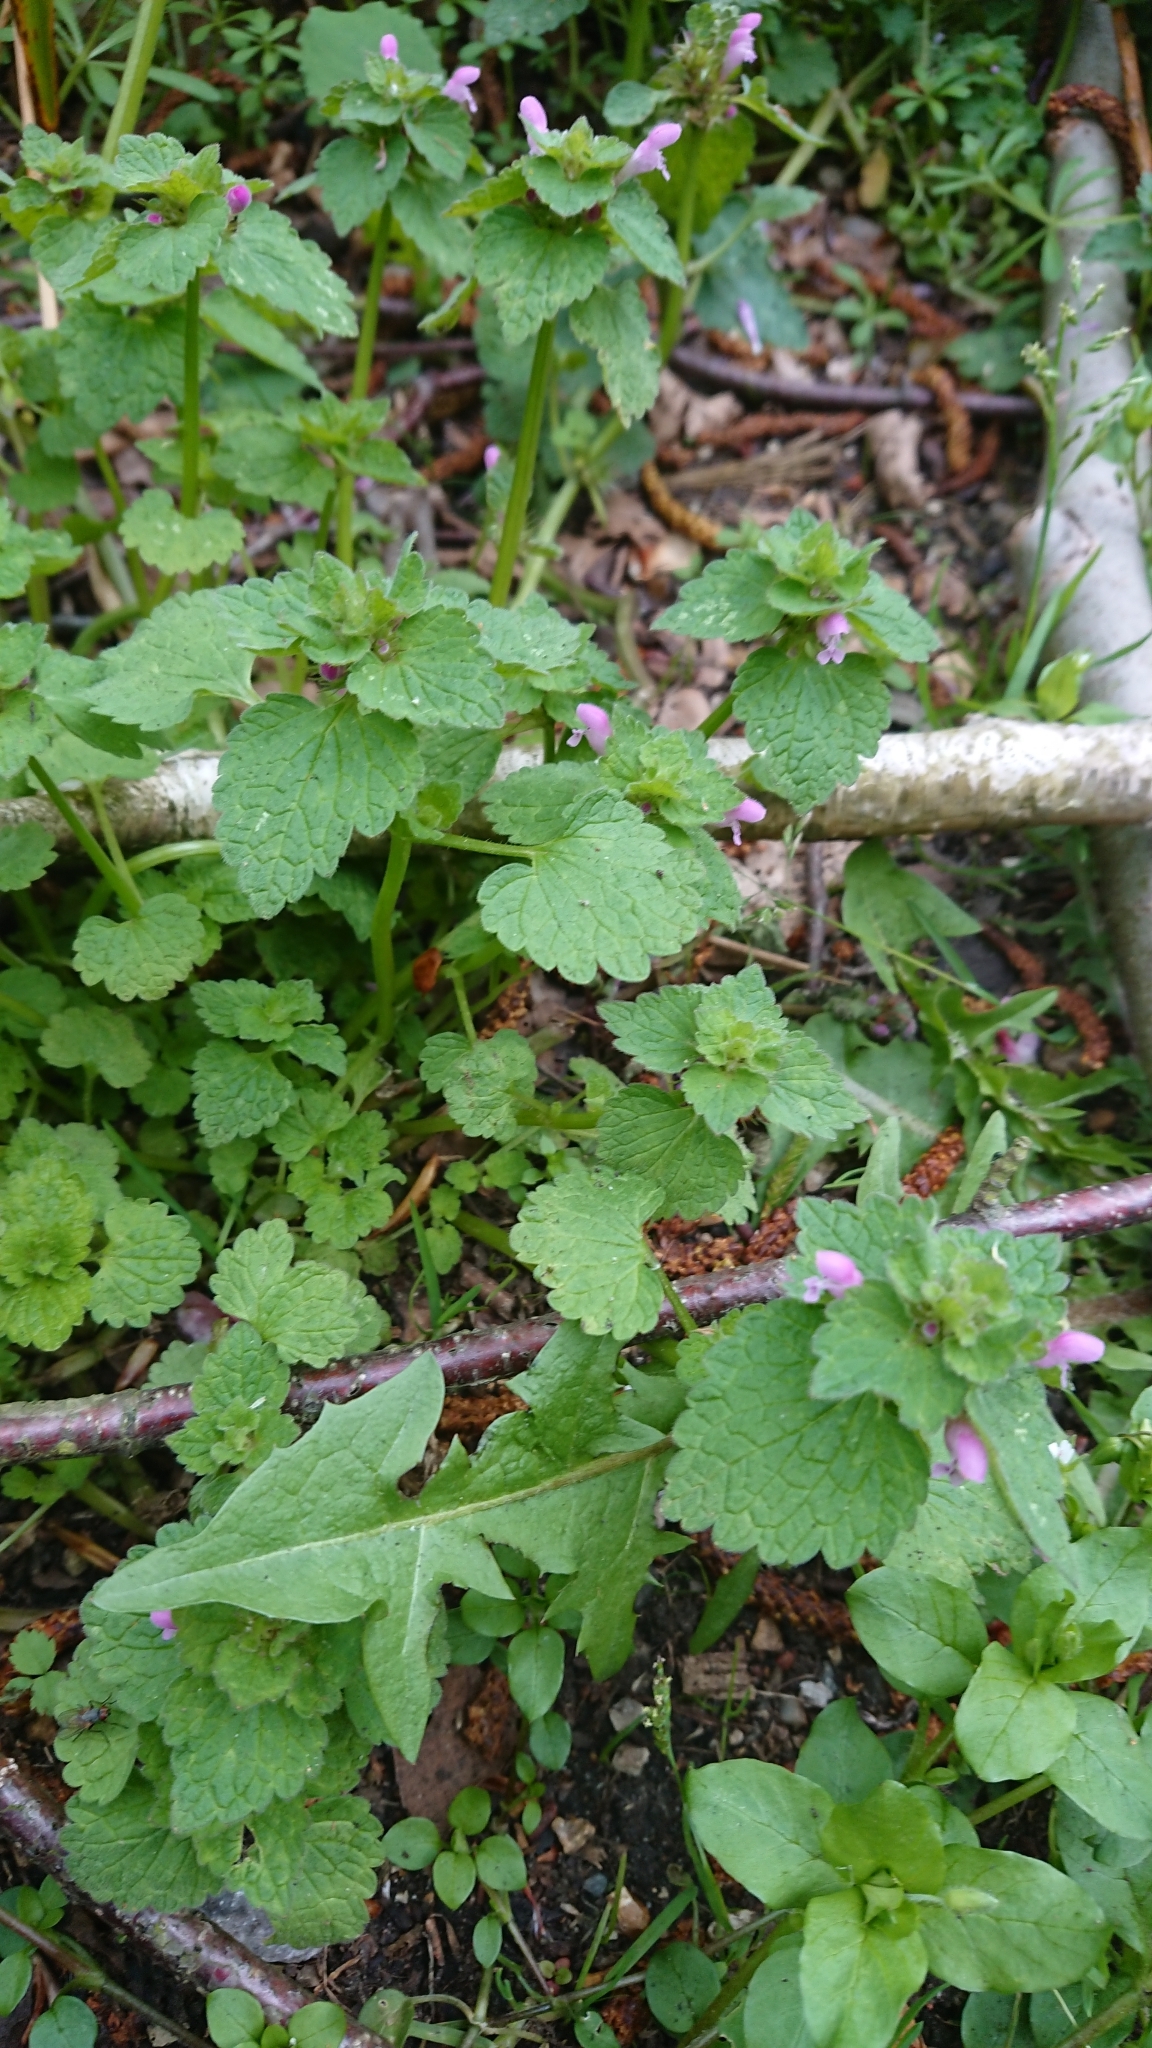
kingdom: Plantae
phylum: Tracheophyta
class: Magnoliopsida
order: Lamiales
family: Lamiaceae
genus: Lamium
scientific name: Lamium purpureum
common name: Red dead-nettle
